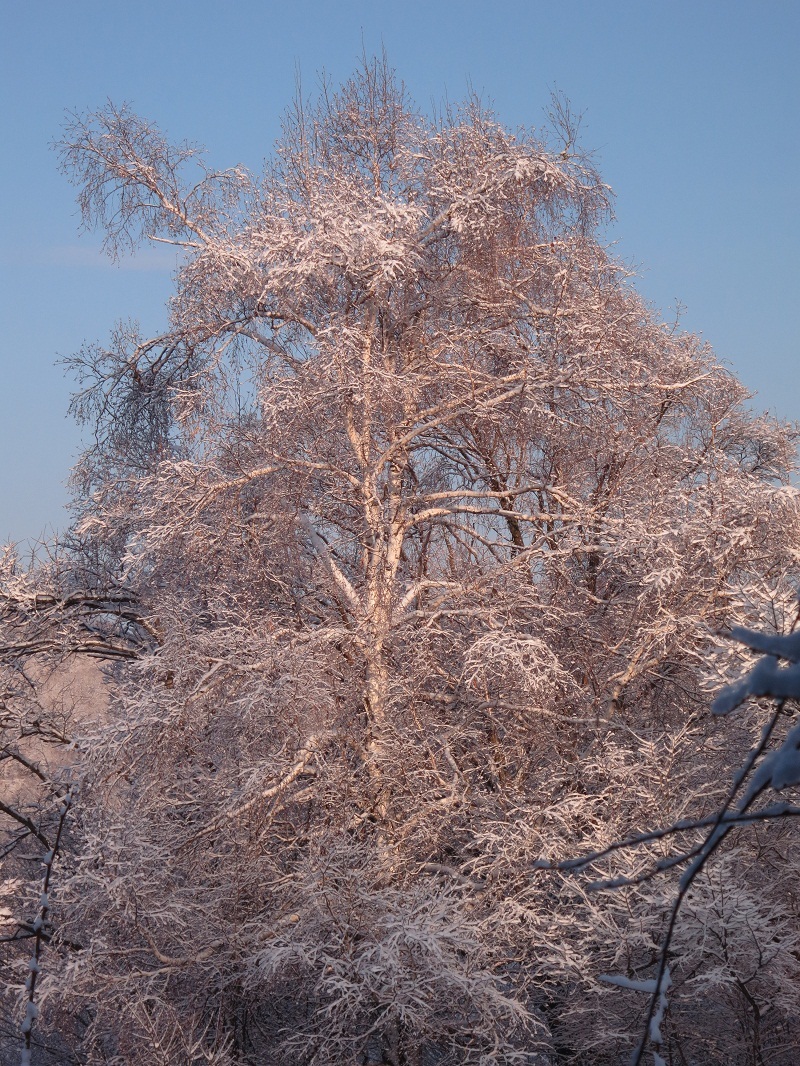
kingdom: Plantae
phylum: Tracheophyta
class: Magnoliopsida
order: Fagales
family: Betulaceae
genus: Betula
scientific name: Betula pendula
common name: Silver birch
